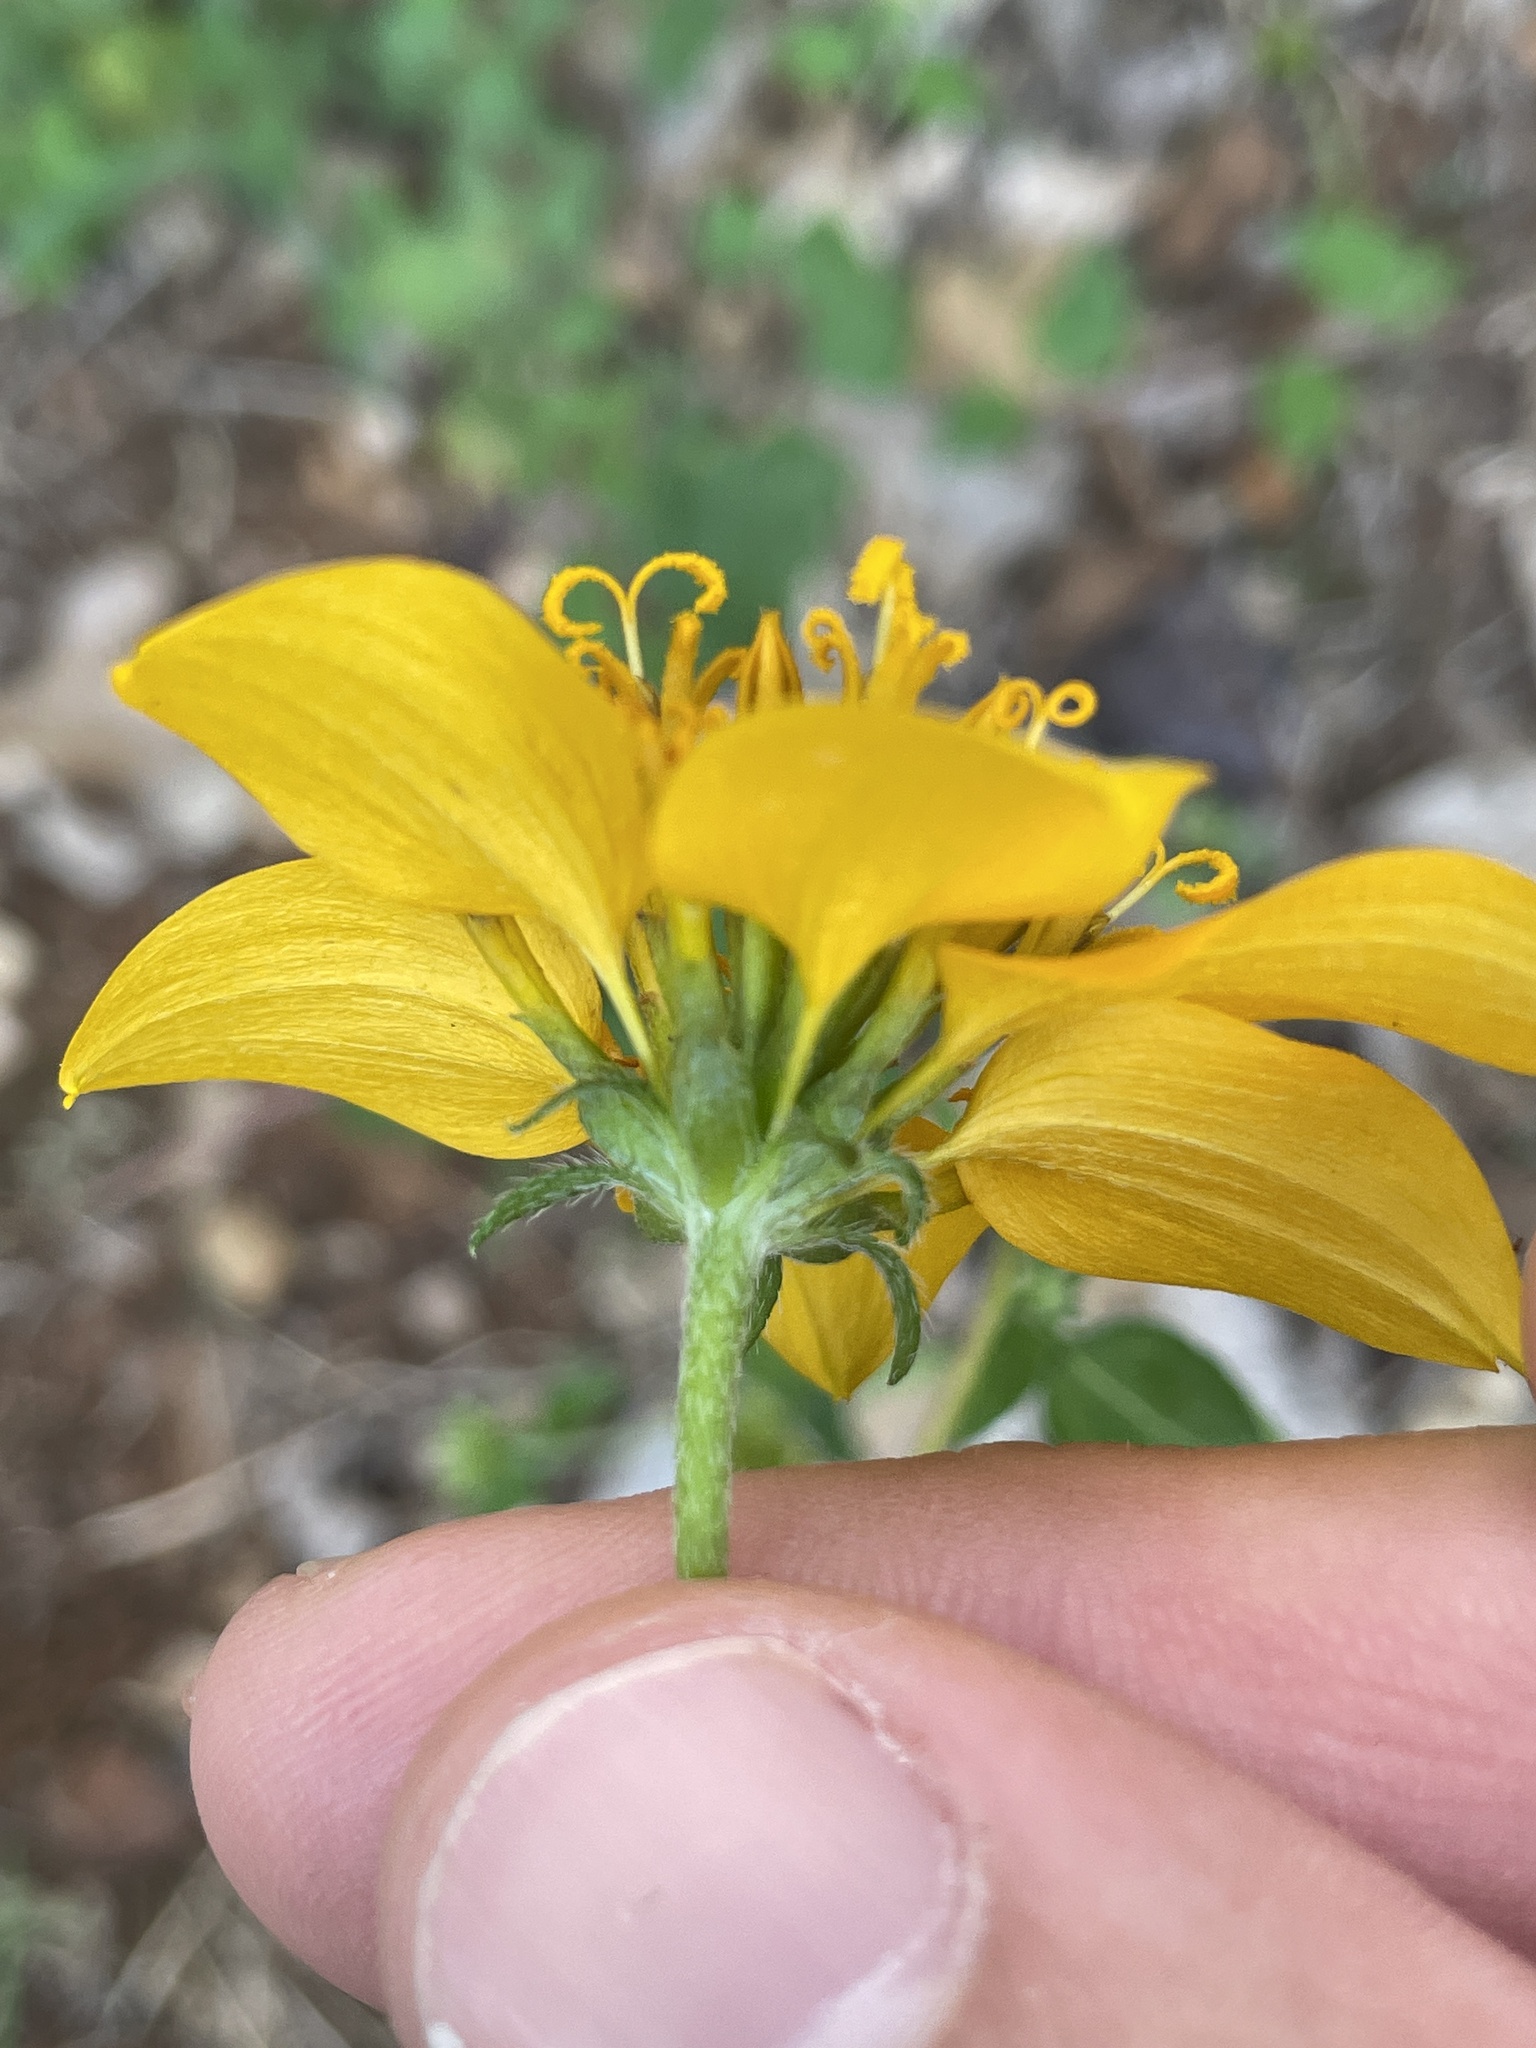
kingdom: Plantae
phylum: Tracheophyta
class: Magnoliopsida
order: Asterales
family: Asteraceae
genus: Sclerocarpus
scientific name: Sclerocarpus uniserialis
